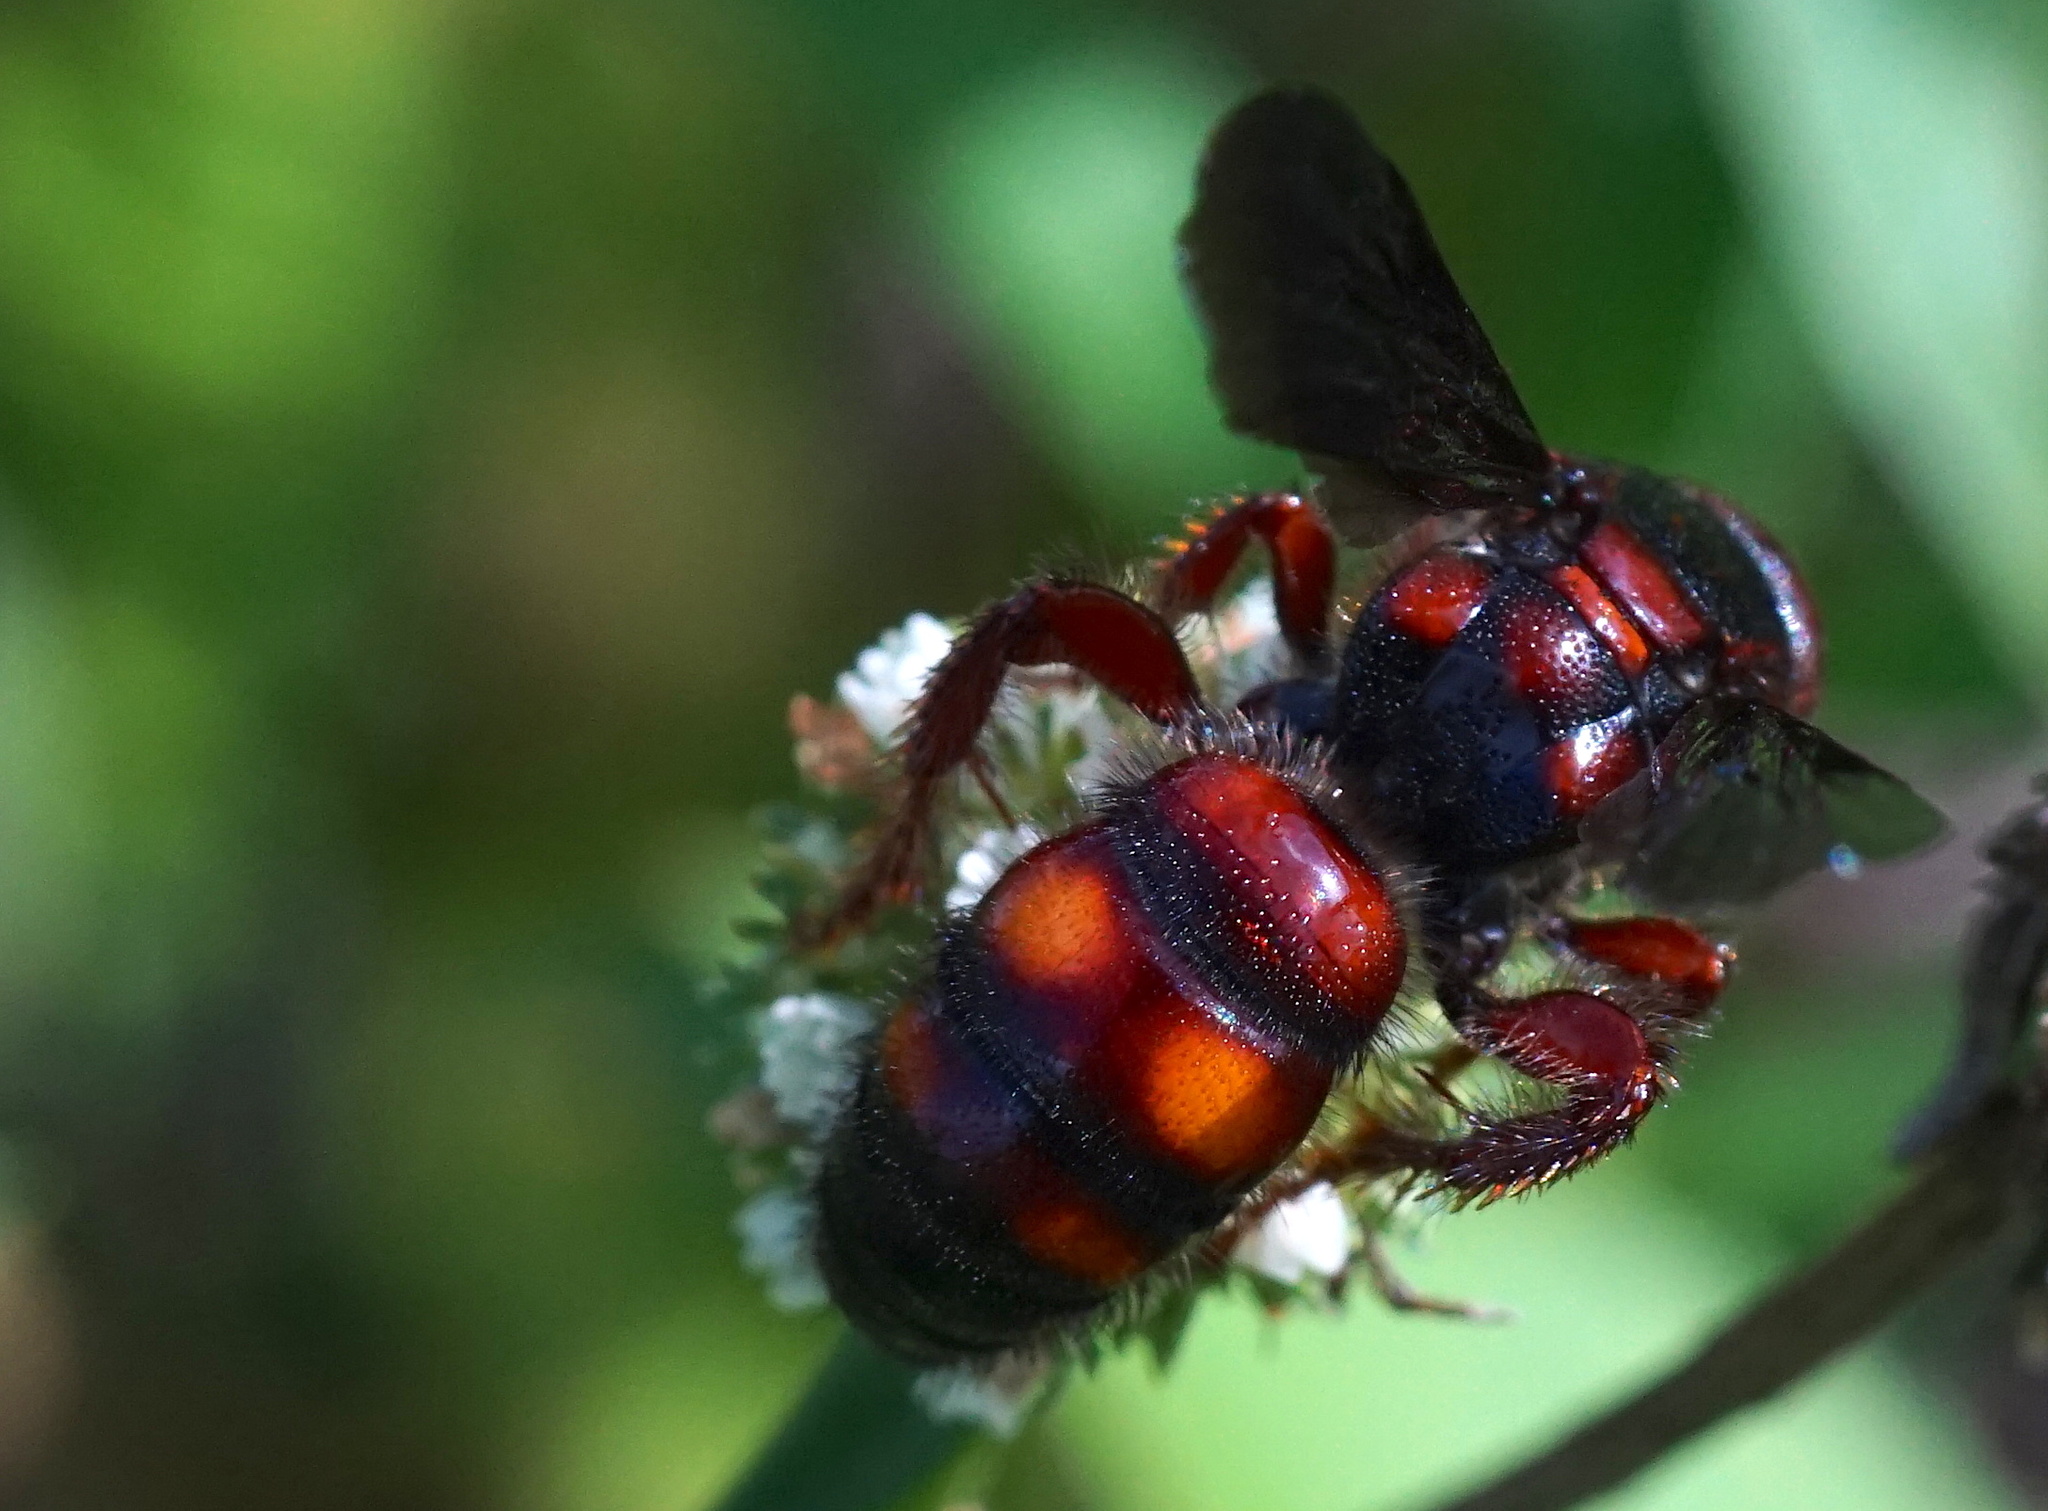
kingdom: Animalia
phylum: Arthropoda
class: Insecta
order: Hymenoptera
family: Scoliidae
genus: Scolia
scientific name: Scolia nobilitata
